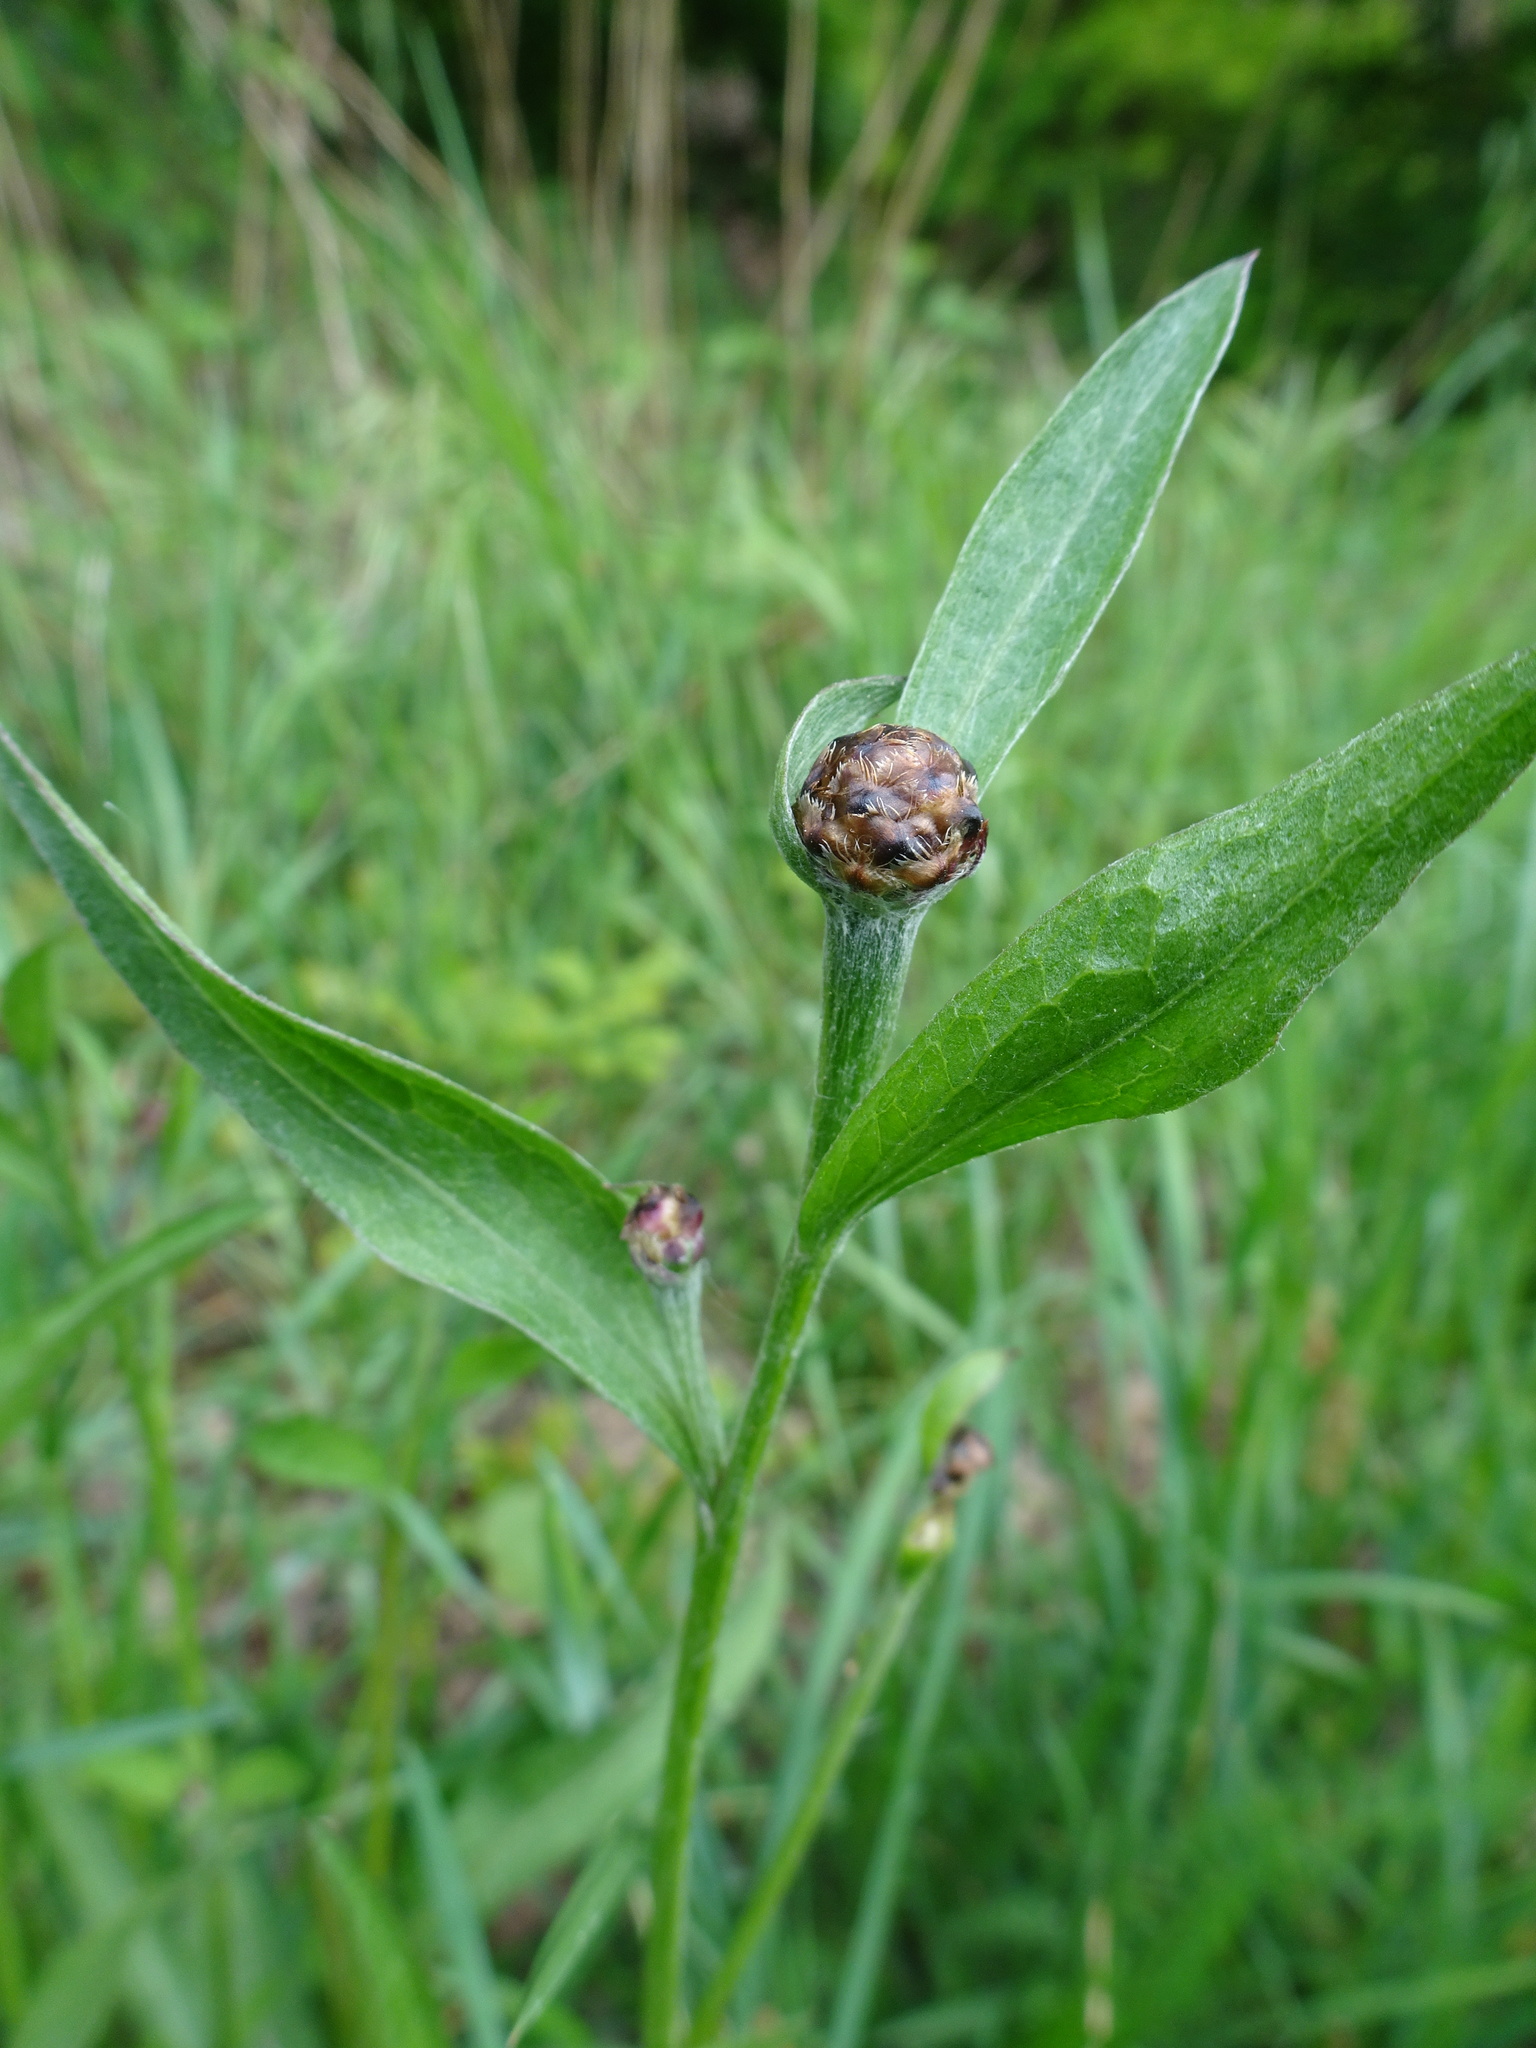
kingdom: Plantae
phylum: Tracheophyta
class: Magnoliopsida
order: Asterales
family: Asteraceae
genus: Centaurea
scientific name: Centaurea jacea
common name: Brown knapweed
